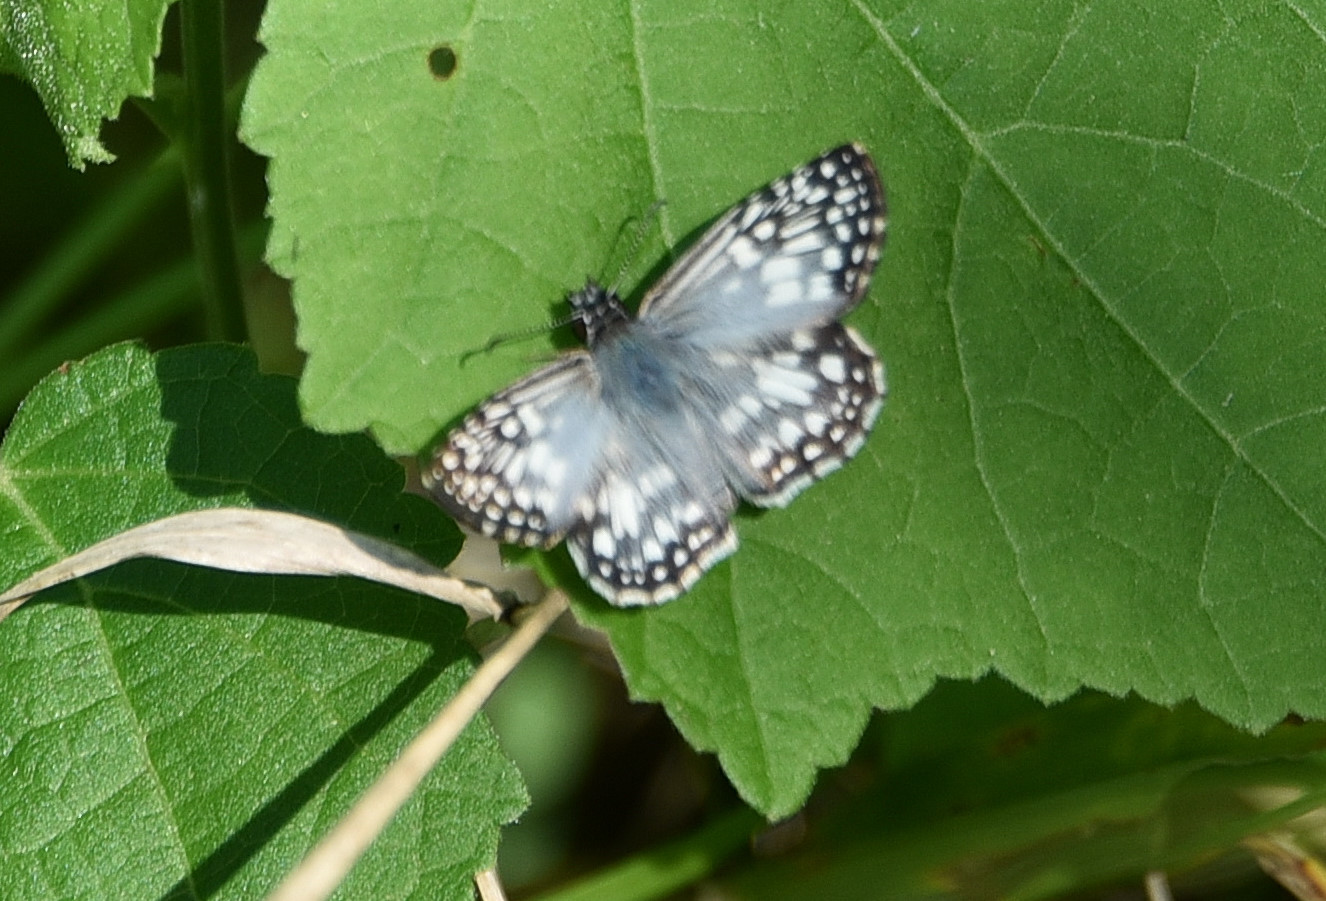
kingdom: Animalia
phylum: Arthropoda
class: Insecta
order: Lepidoptera
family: Hesperiidae
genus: Pyrgus
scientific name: Pyrgus oileus
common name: Tropical checkered-skipper
